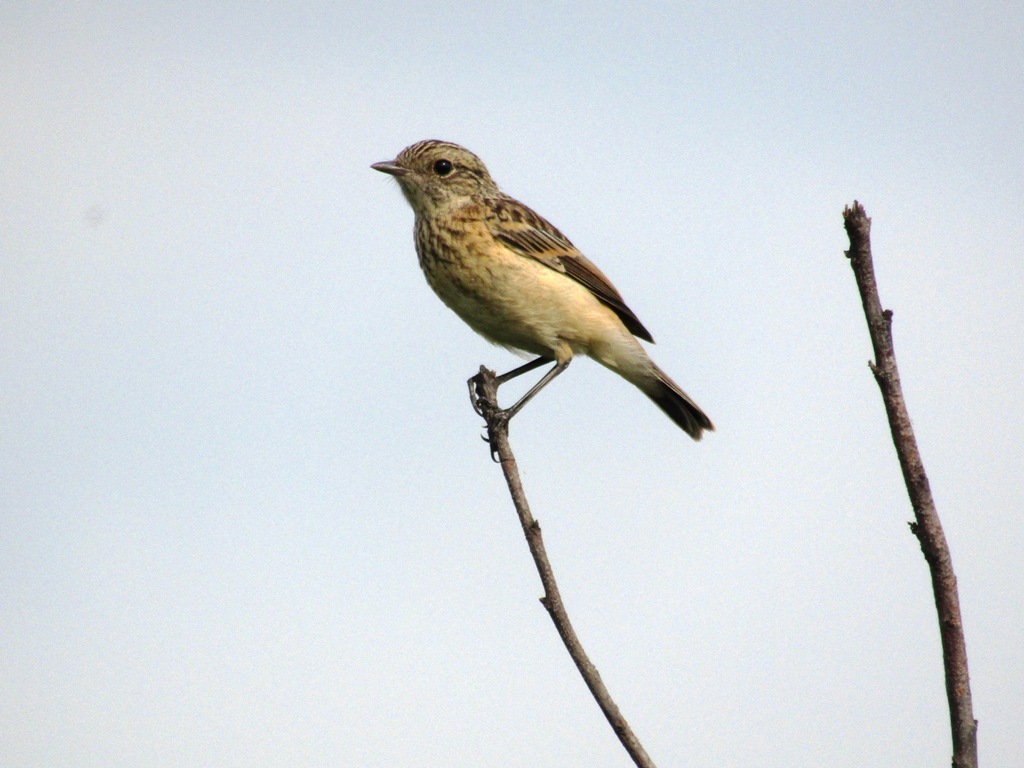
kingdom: Animalia
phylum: Chordata
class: Aves
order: Passeriformes
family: Muscicapidae
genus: Saxicola
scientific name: Saxicola maurus
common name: Siberian stonechat
